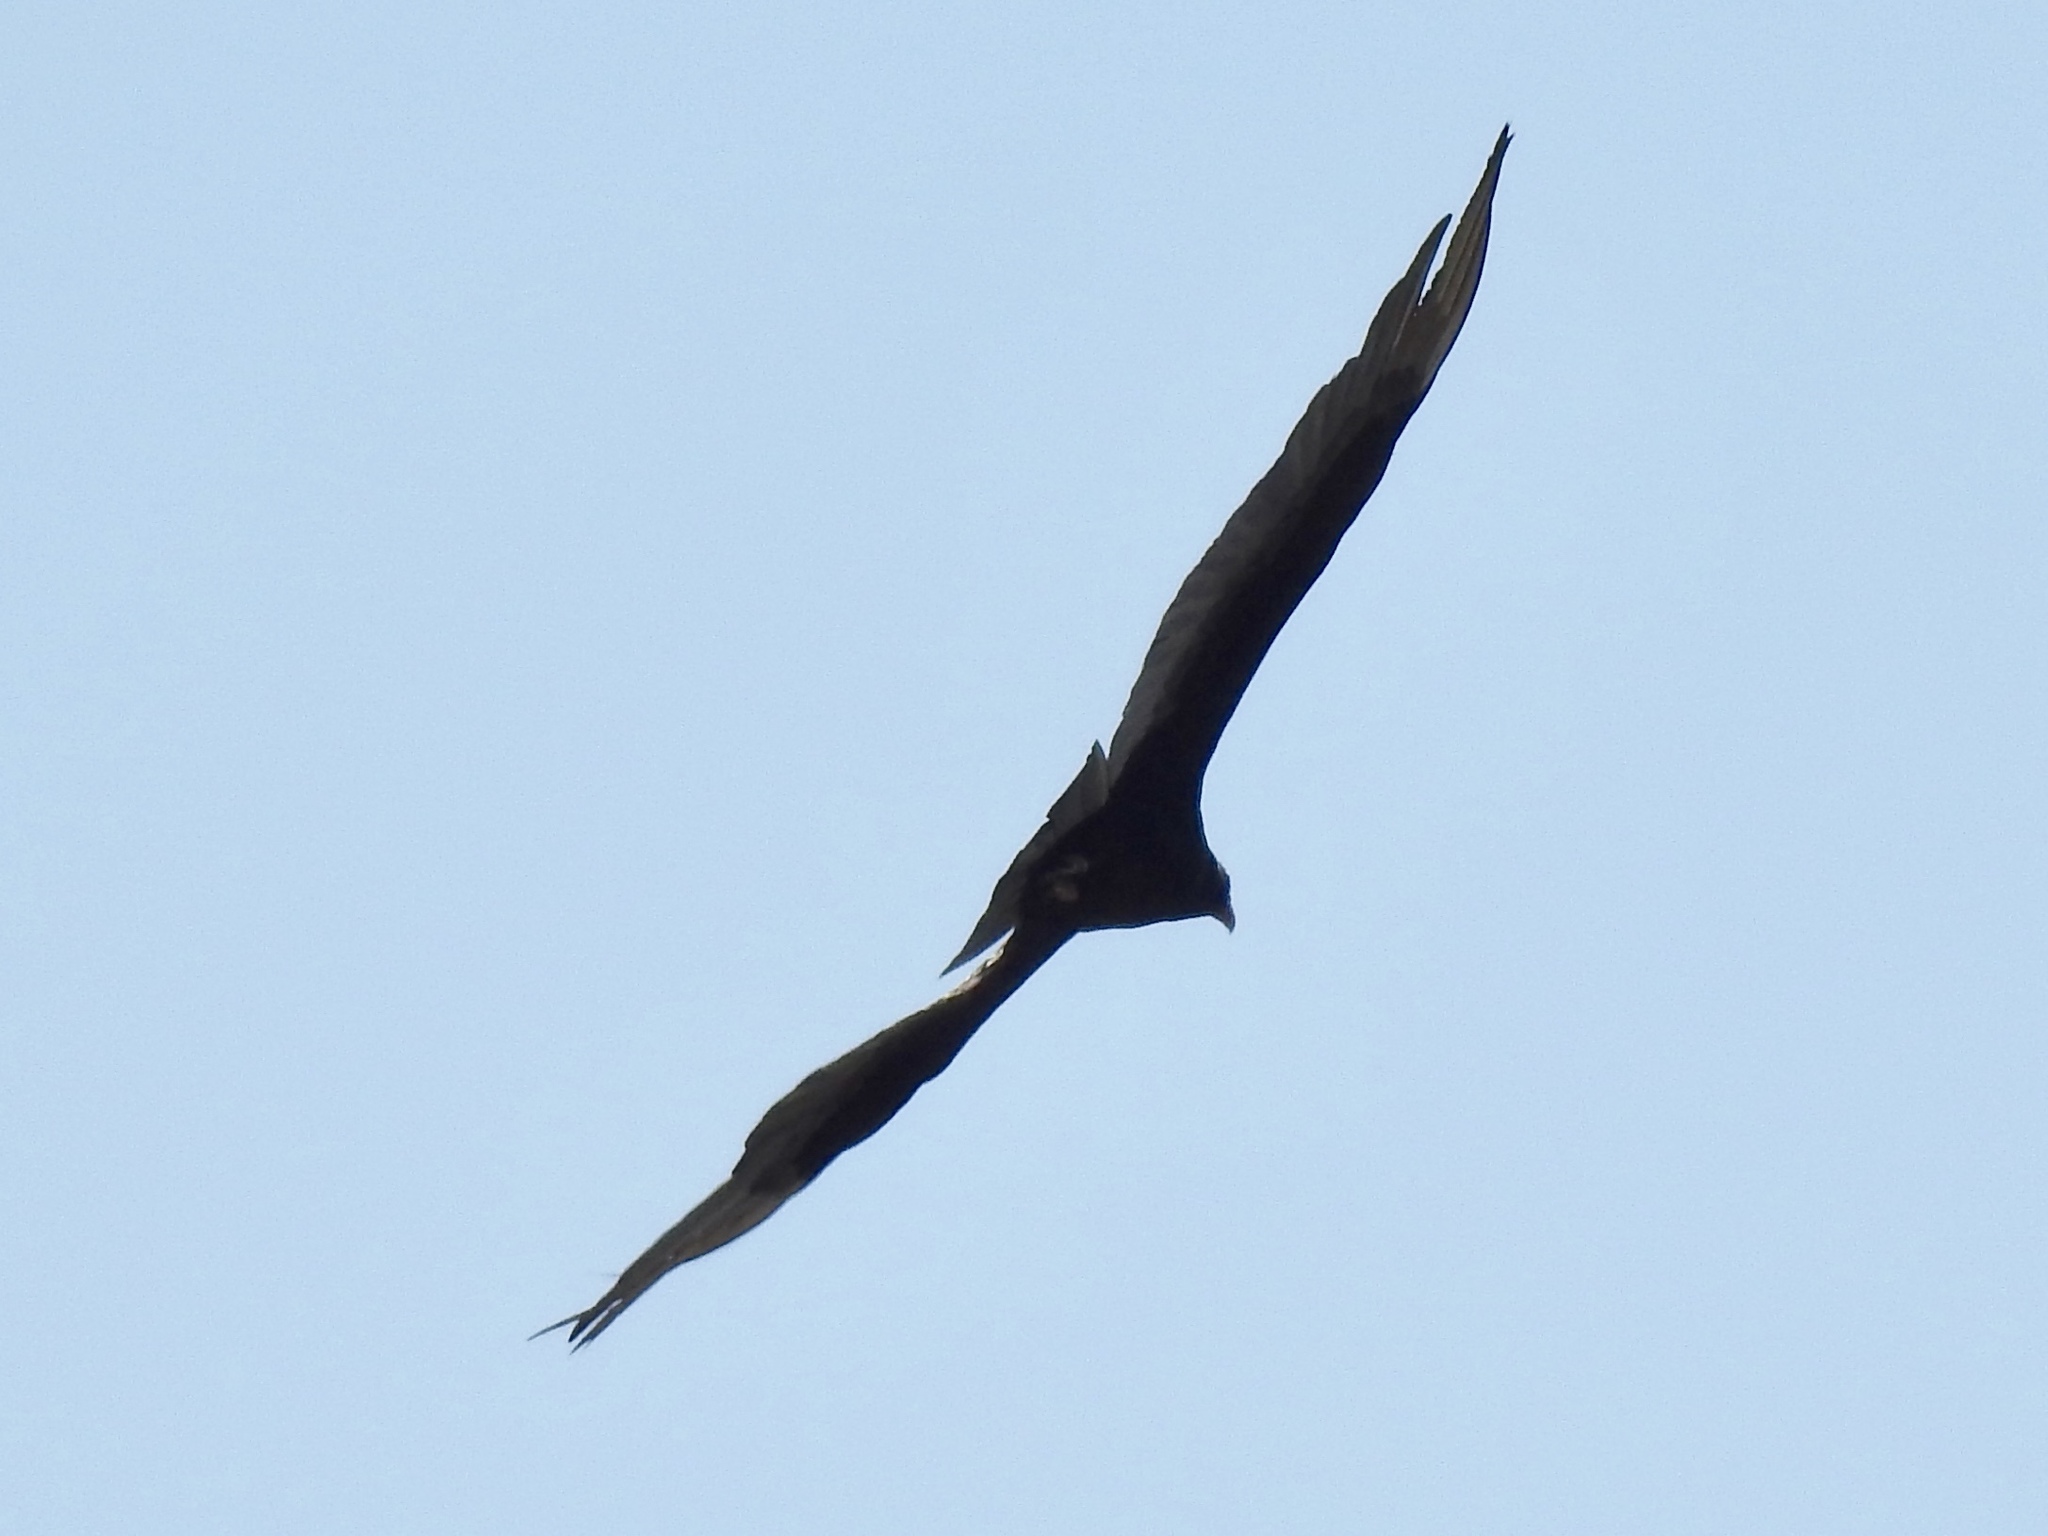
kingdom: Animalia
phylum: Chordata
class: Aves
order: Accipitriformes
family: Cathartidae
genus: Cathartes
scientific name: Cathartes aura
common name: Turkey vulture
